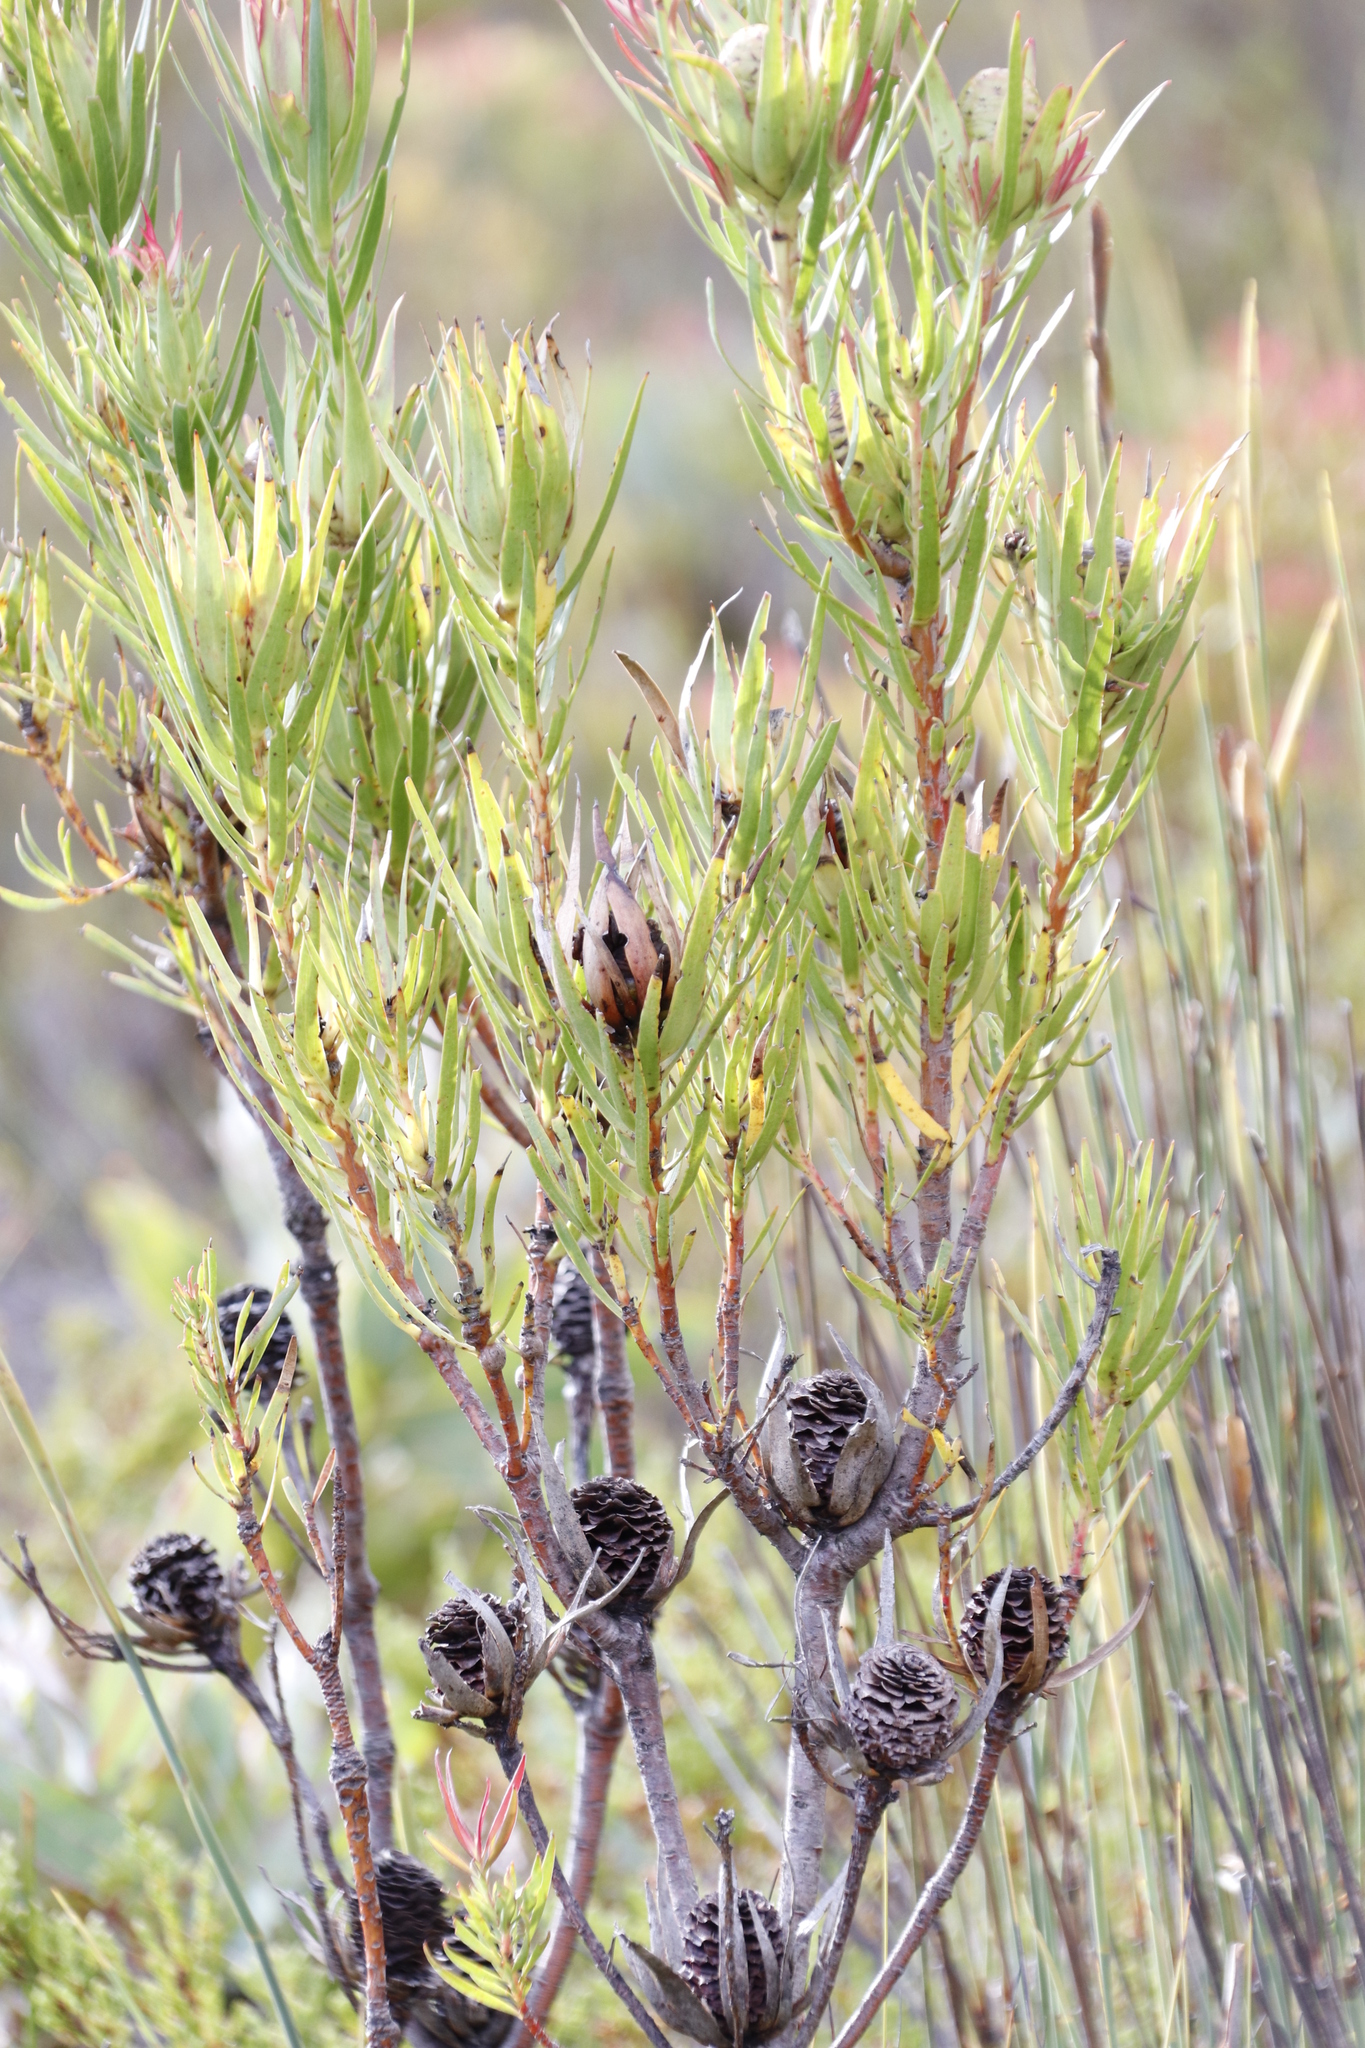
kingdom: Plantae
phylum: Tracheophyta
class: Magnoliopsida
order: Proteales
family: Proteaceae
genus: Leucadendron
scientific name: Leucadendron salignum
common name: Common sunshine conebush
